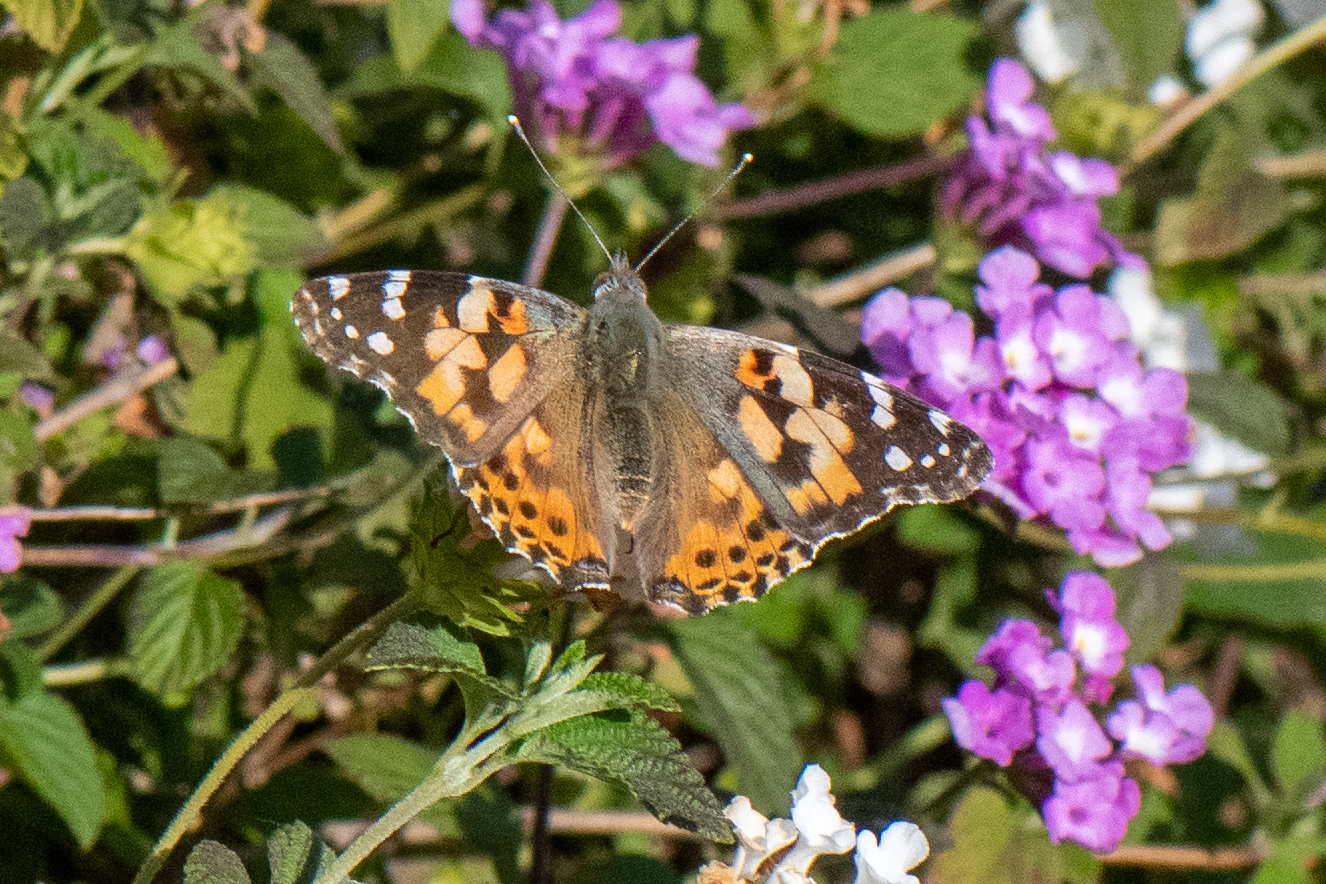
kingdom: Animalia
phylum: Arthropoda
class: Insecta
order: Lepidoptera
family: Nymphalidae
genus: Vanessa
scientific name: Vanessa cardui
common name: Painted lady
